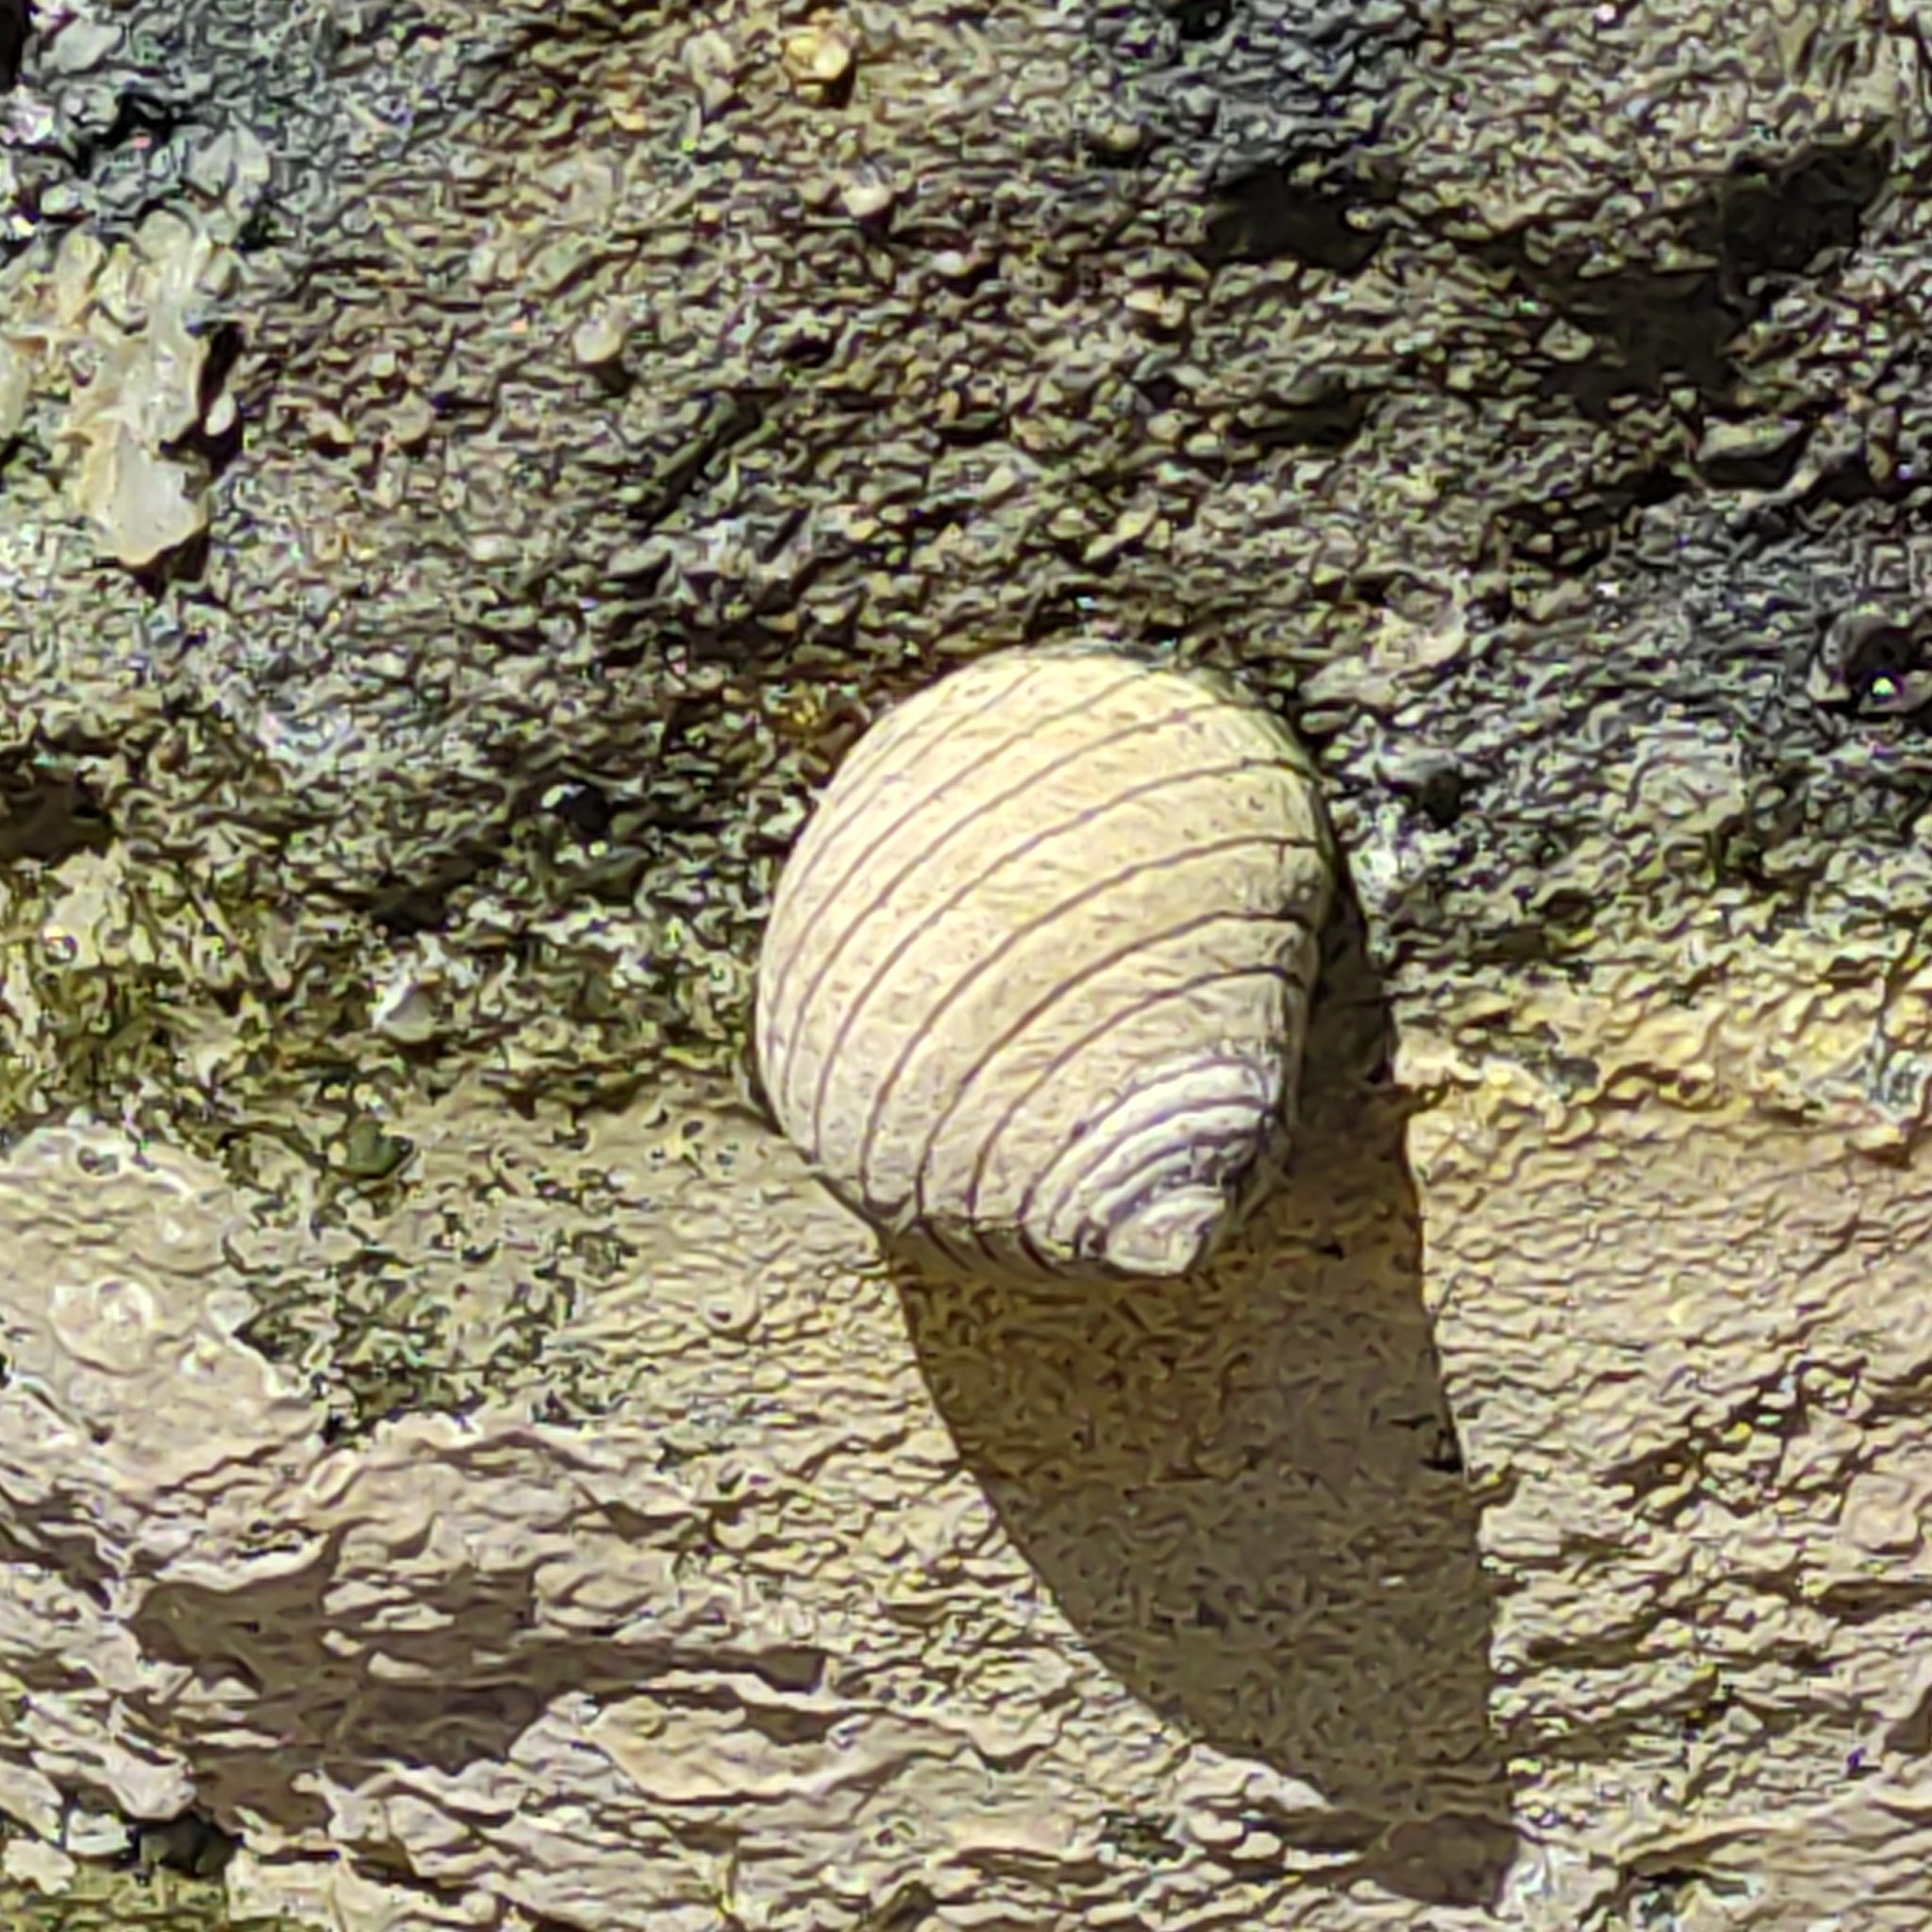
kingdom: Animalia
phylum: Mollusca
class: Gastropoda
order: Trochida
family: Trochidae
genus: Diloma
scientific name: Diloma aethiops
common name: Scorched monodont
